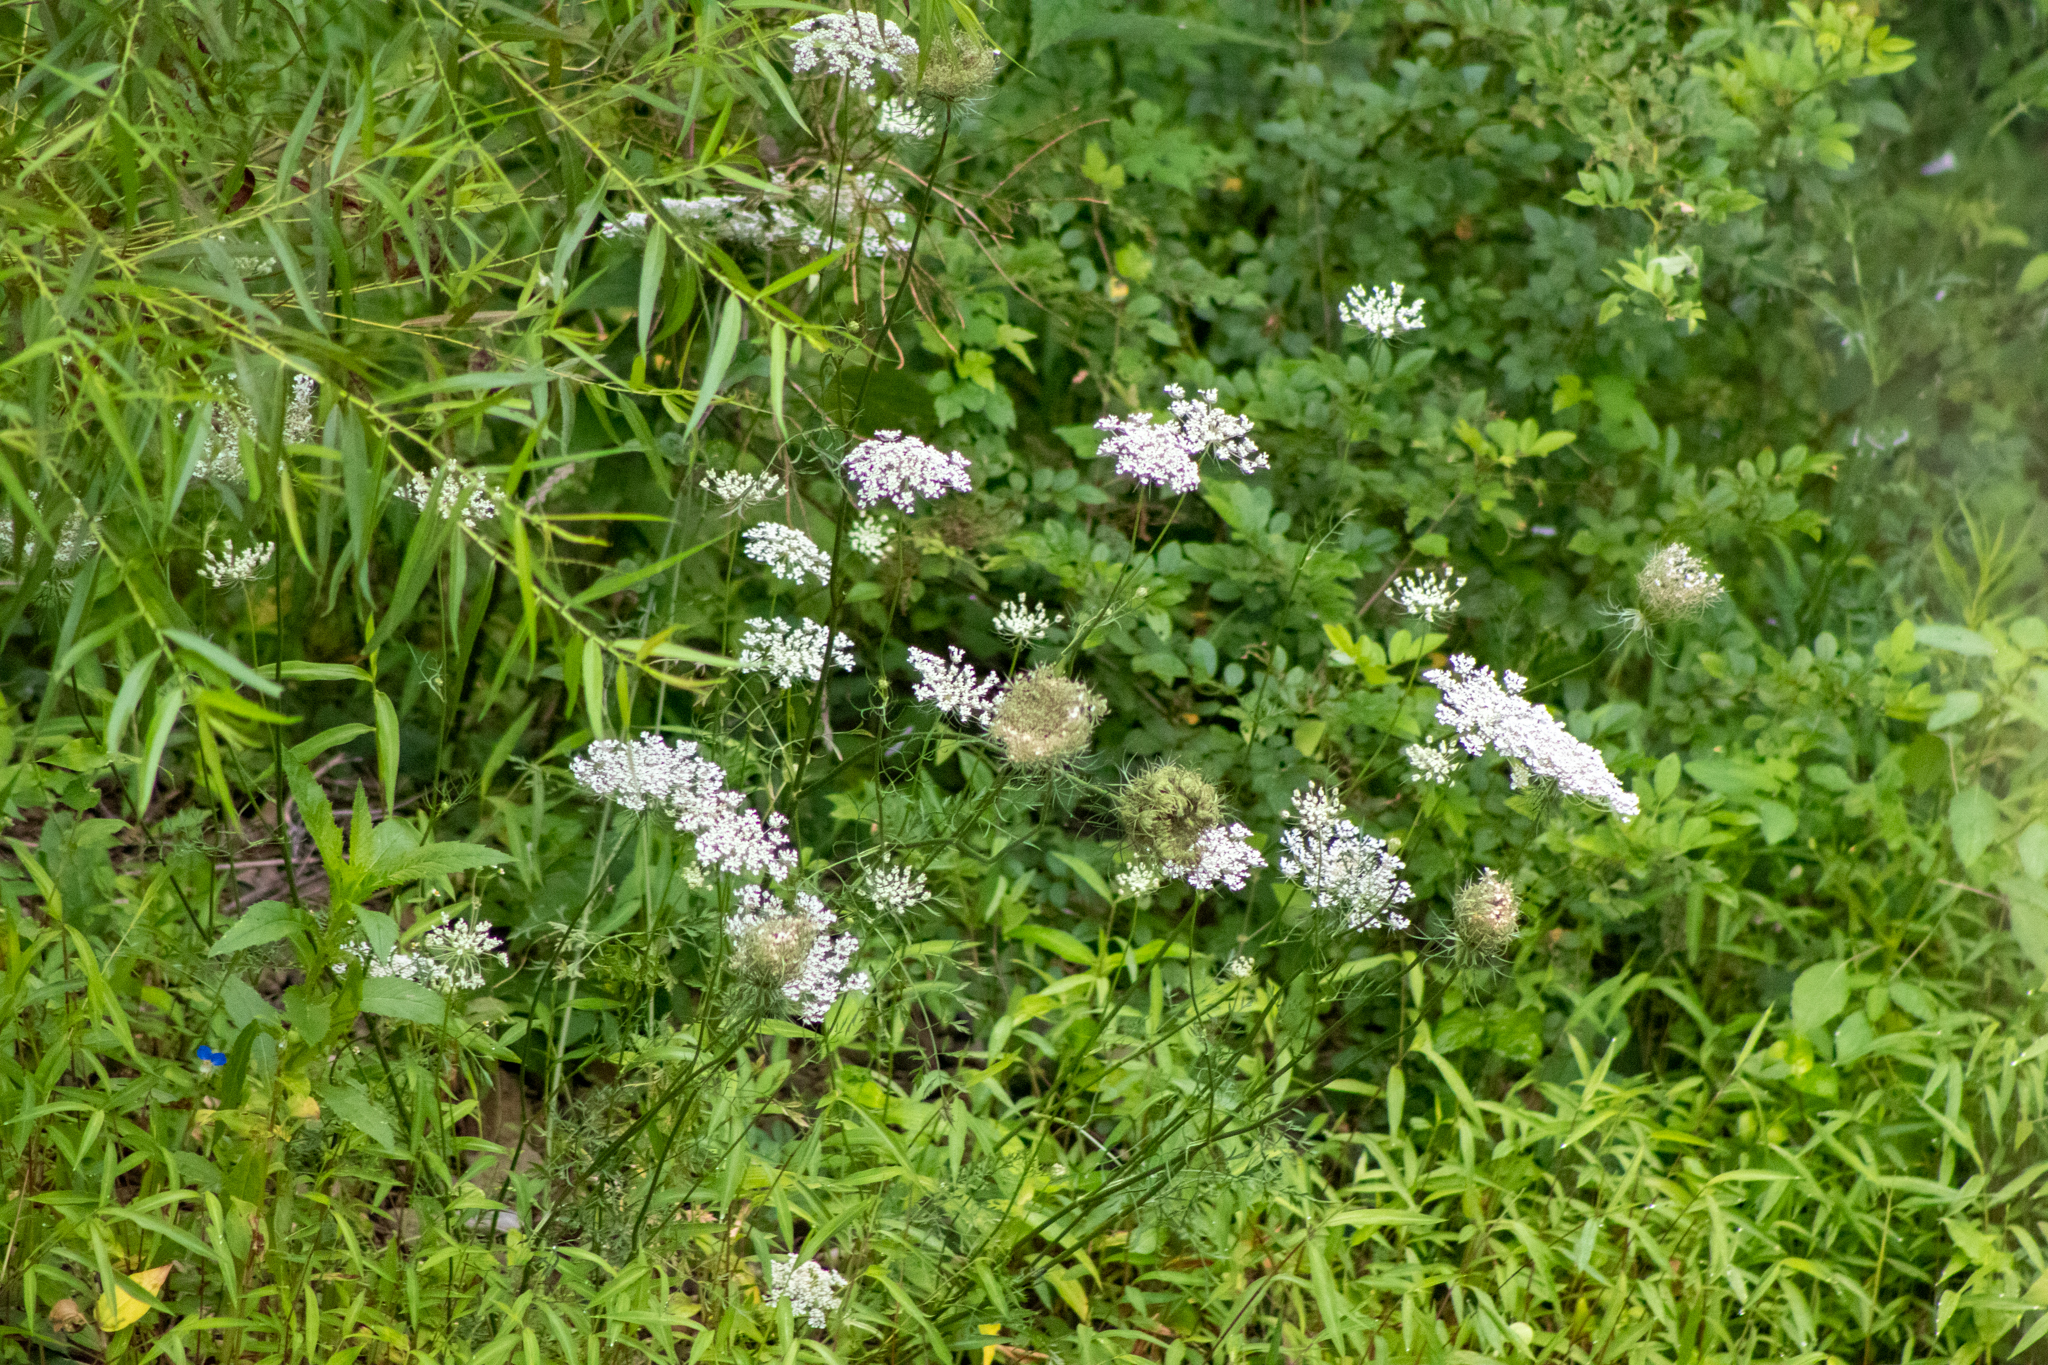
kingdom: Plantae
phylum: Tracheophyta
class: Magnoliopsida
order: Apiales
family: Apiaceae
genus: Daucus
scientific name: Daucus carota
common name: Wild carrot
